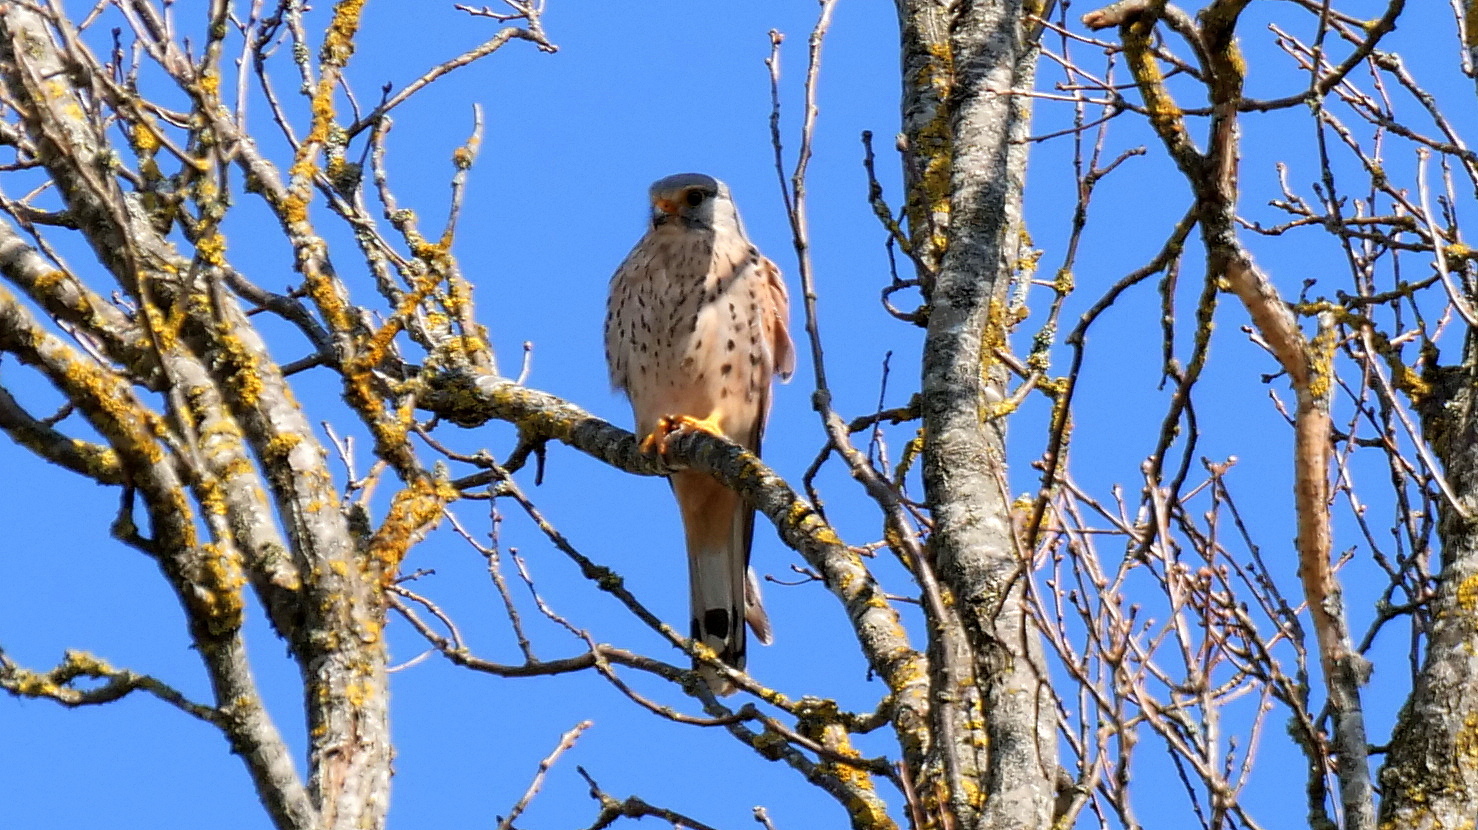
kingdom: Animalia
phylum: Chordata
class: Aves
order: Falconiformes
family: Falconidae
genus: Falco
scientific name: Falco tinnunculus
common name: Common kestrel
